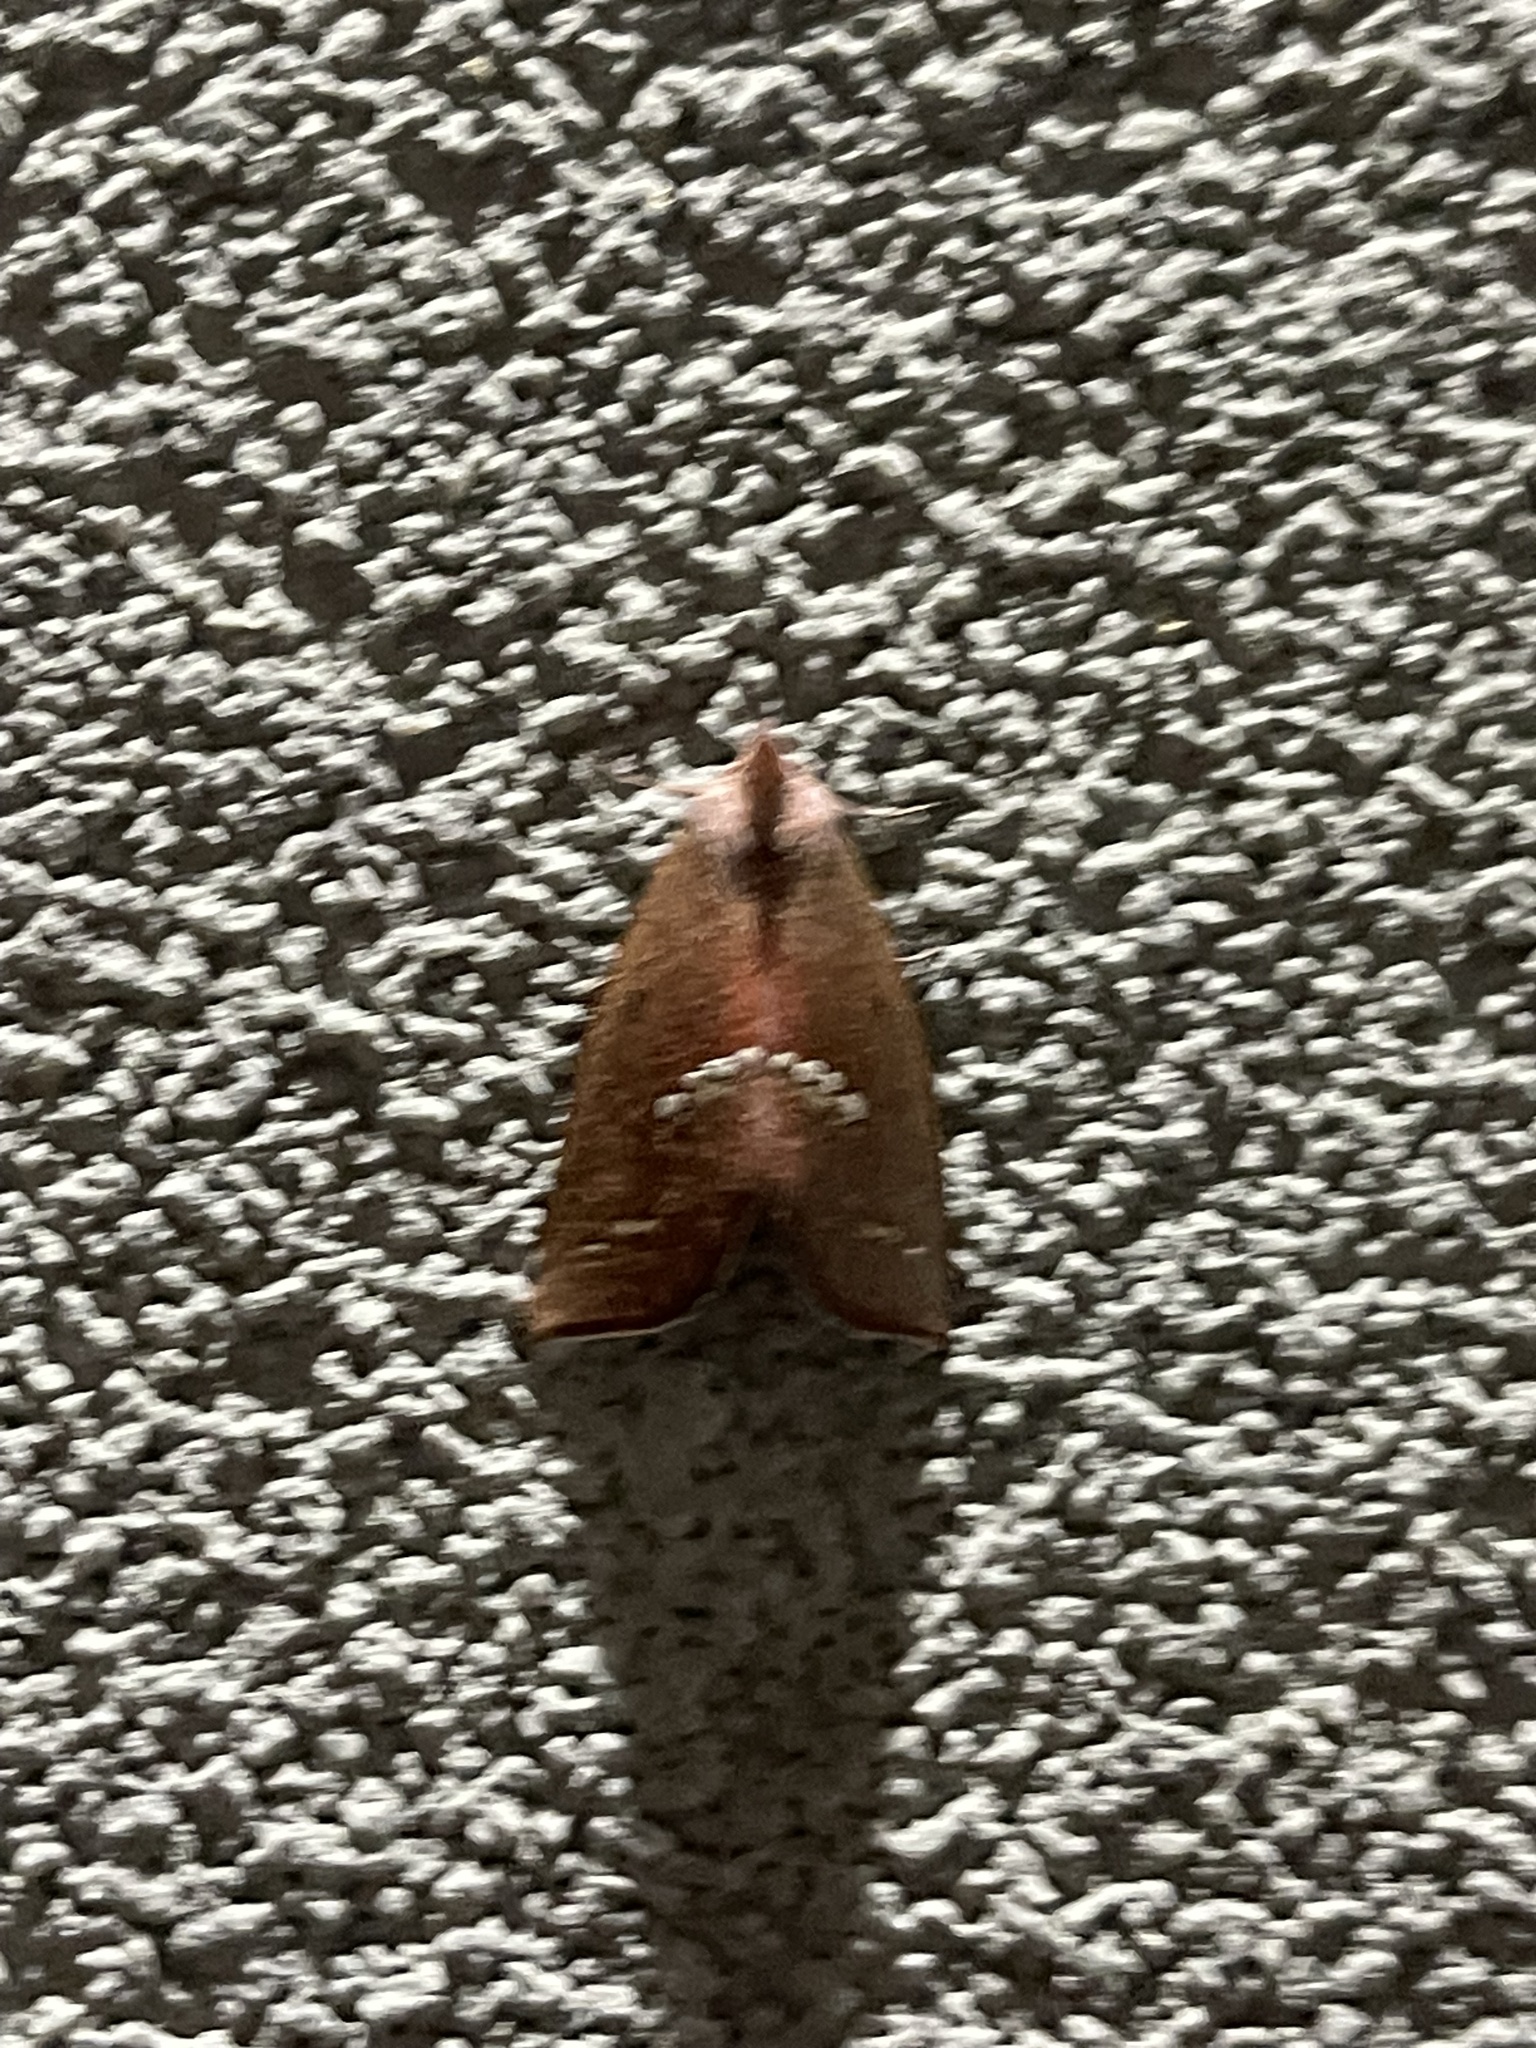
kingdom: Animalia
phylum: Arthropoda
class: Insecta
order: Lepidoptera
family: Erebidae
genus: Hypsoropha
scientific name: Hypsoropha monilis
